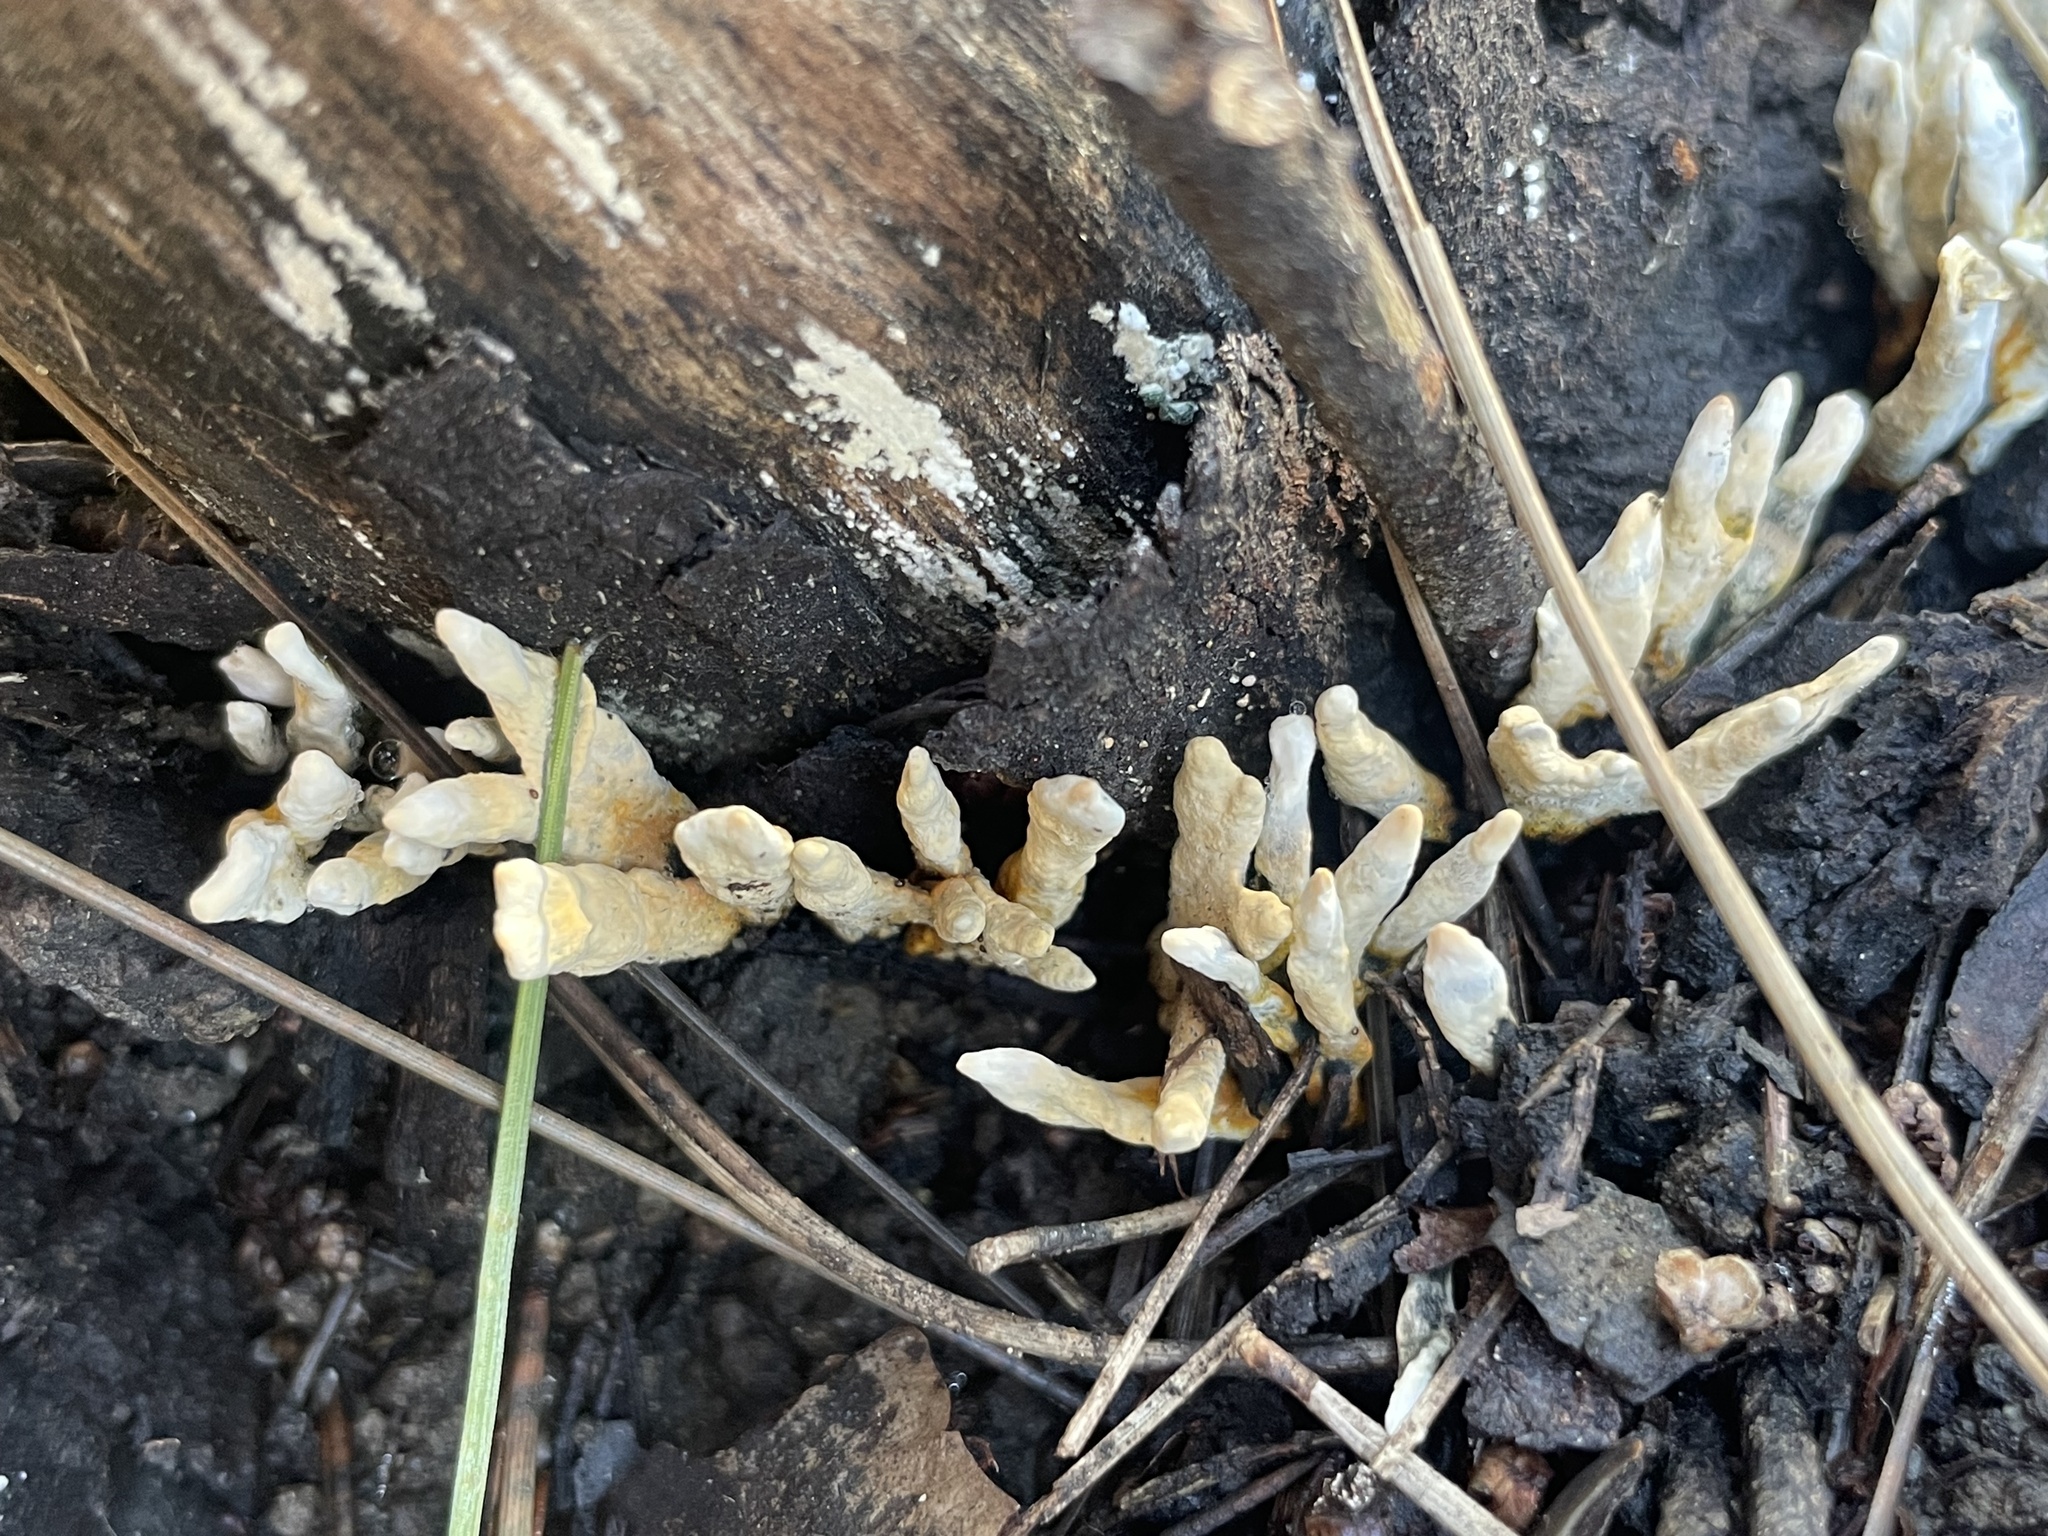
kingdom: Fungi
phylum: Ascomycota
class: Sordariomycetes
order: Xylariales
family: Xylariaceae
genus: Xylaria
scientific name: Xylaria hypoxylon
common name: Candle-snuff fungus
